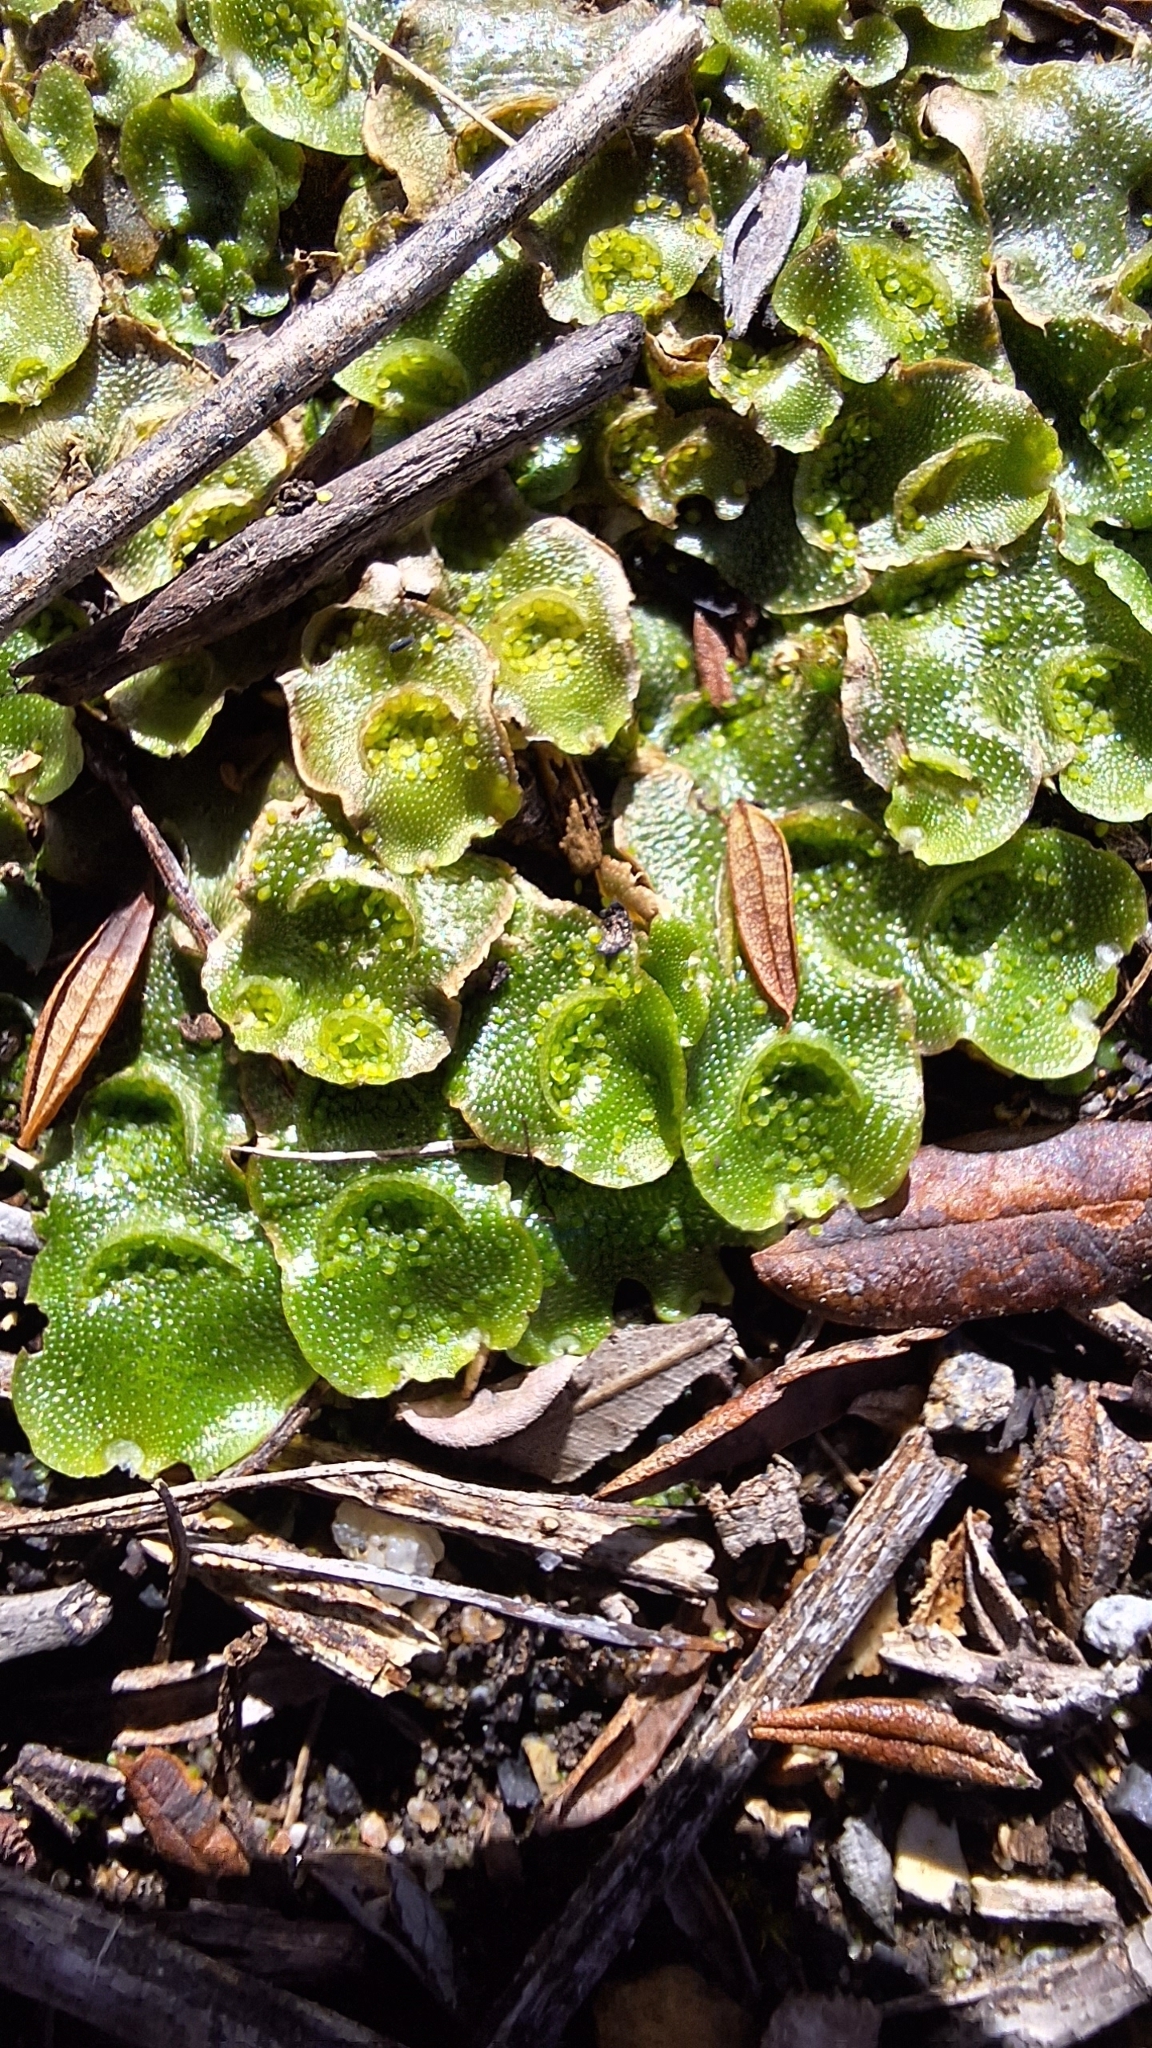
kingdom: Plantae
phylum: Marchantiophyta
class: Marchantiopsida
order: Lunulariales
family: Lunulariaceae
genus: Lunularia
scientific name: Lunularia cruciata
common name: Crescent-cup liverwort
